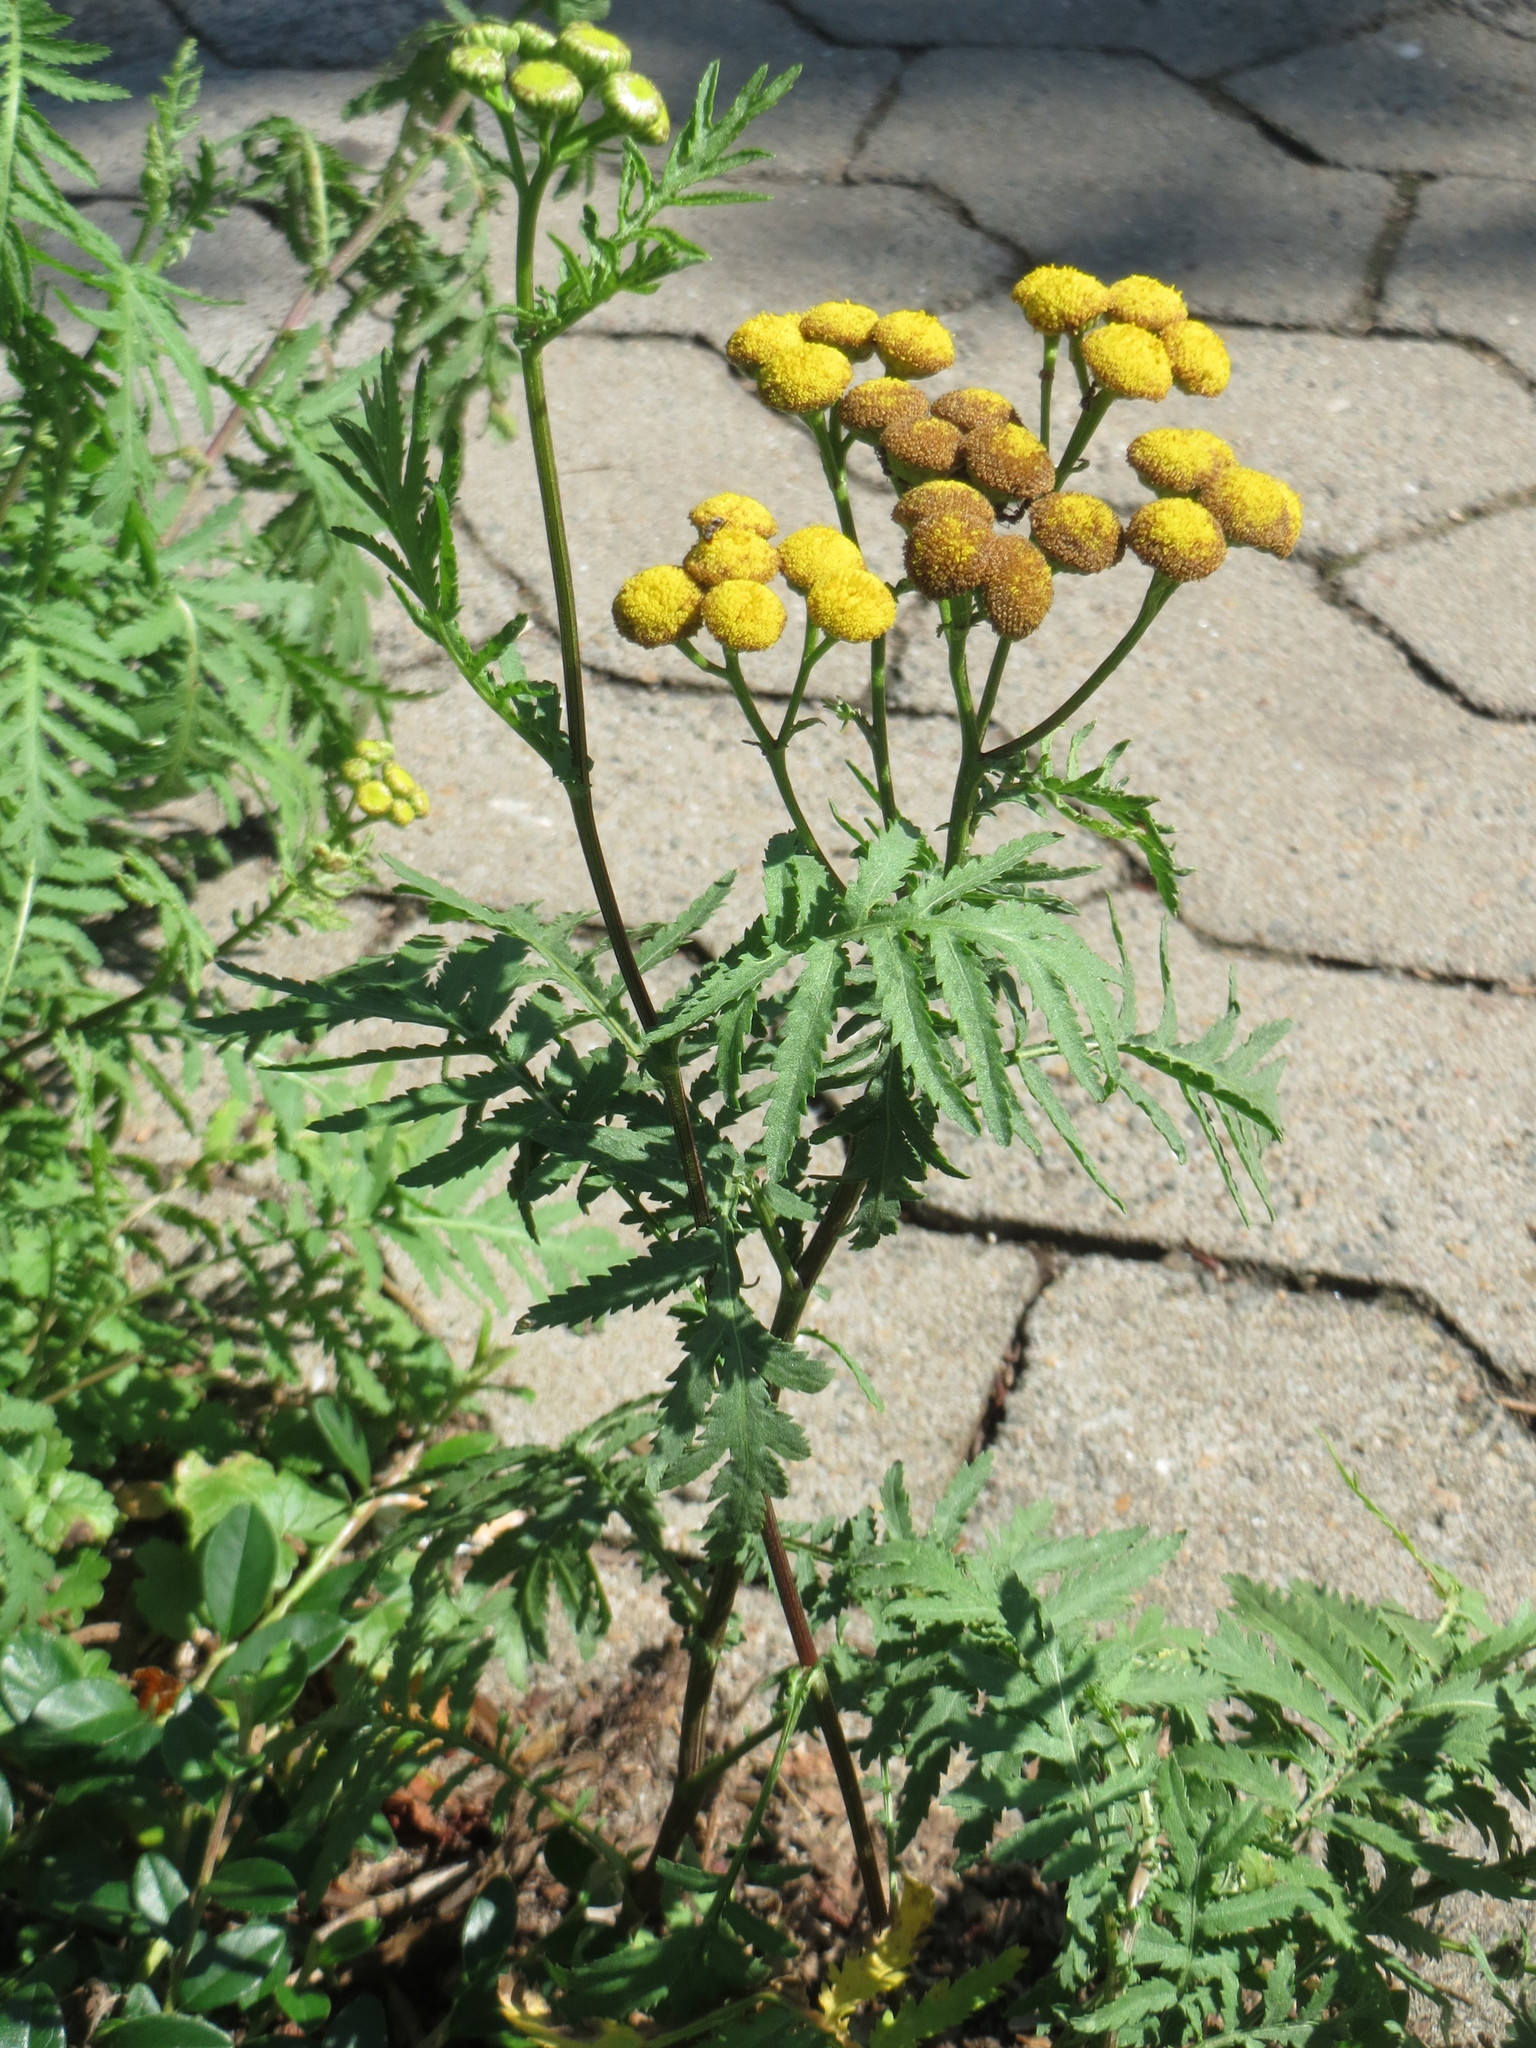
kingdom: Plantae
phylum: Tracheophyta
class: Magnoliopsida
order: Asterales
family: Asteraceae
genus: Tanacetum
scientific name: Tanacetum vulgare
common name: Common tansy
